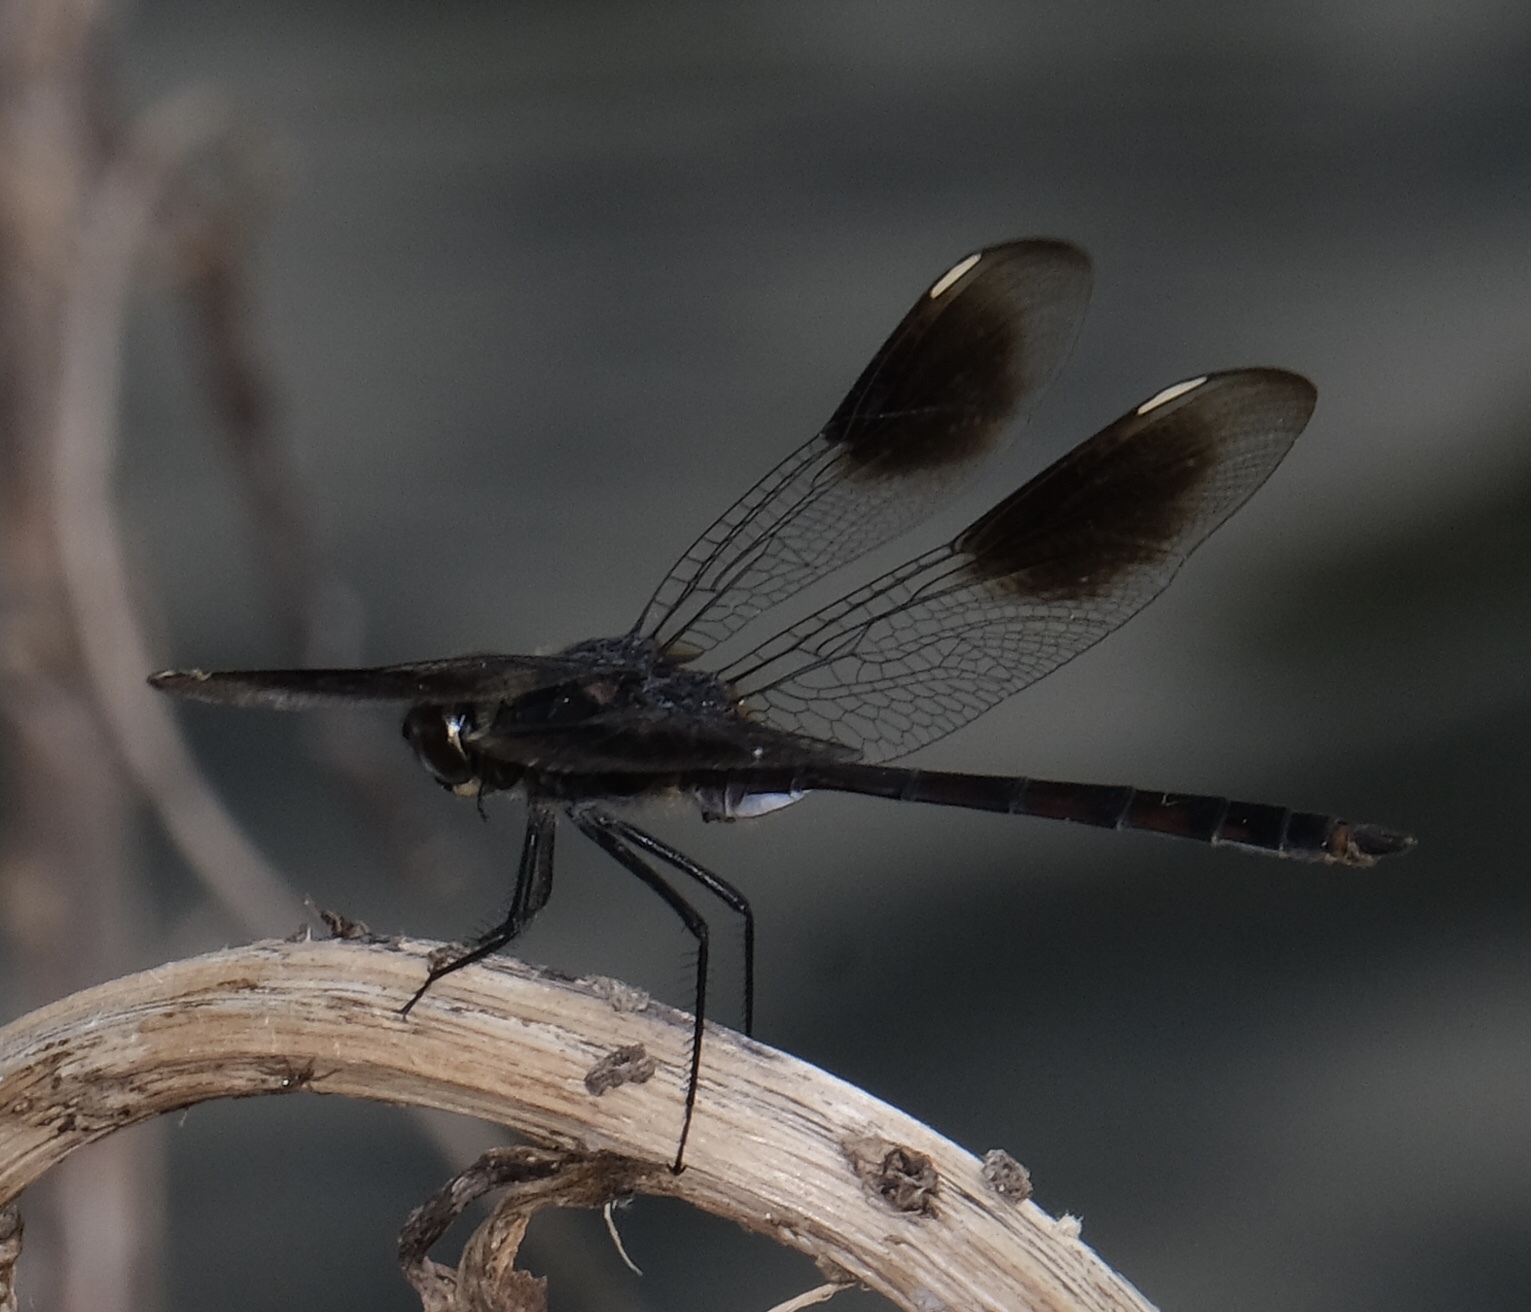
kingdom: Animalia
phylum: Arthropoda
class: Insecta
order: Odonata
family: Libellulidae
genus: Brachymesia
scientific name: Brachymesia gravida
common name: Four-spotted pennant
